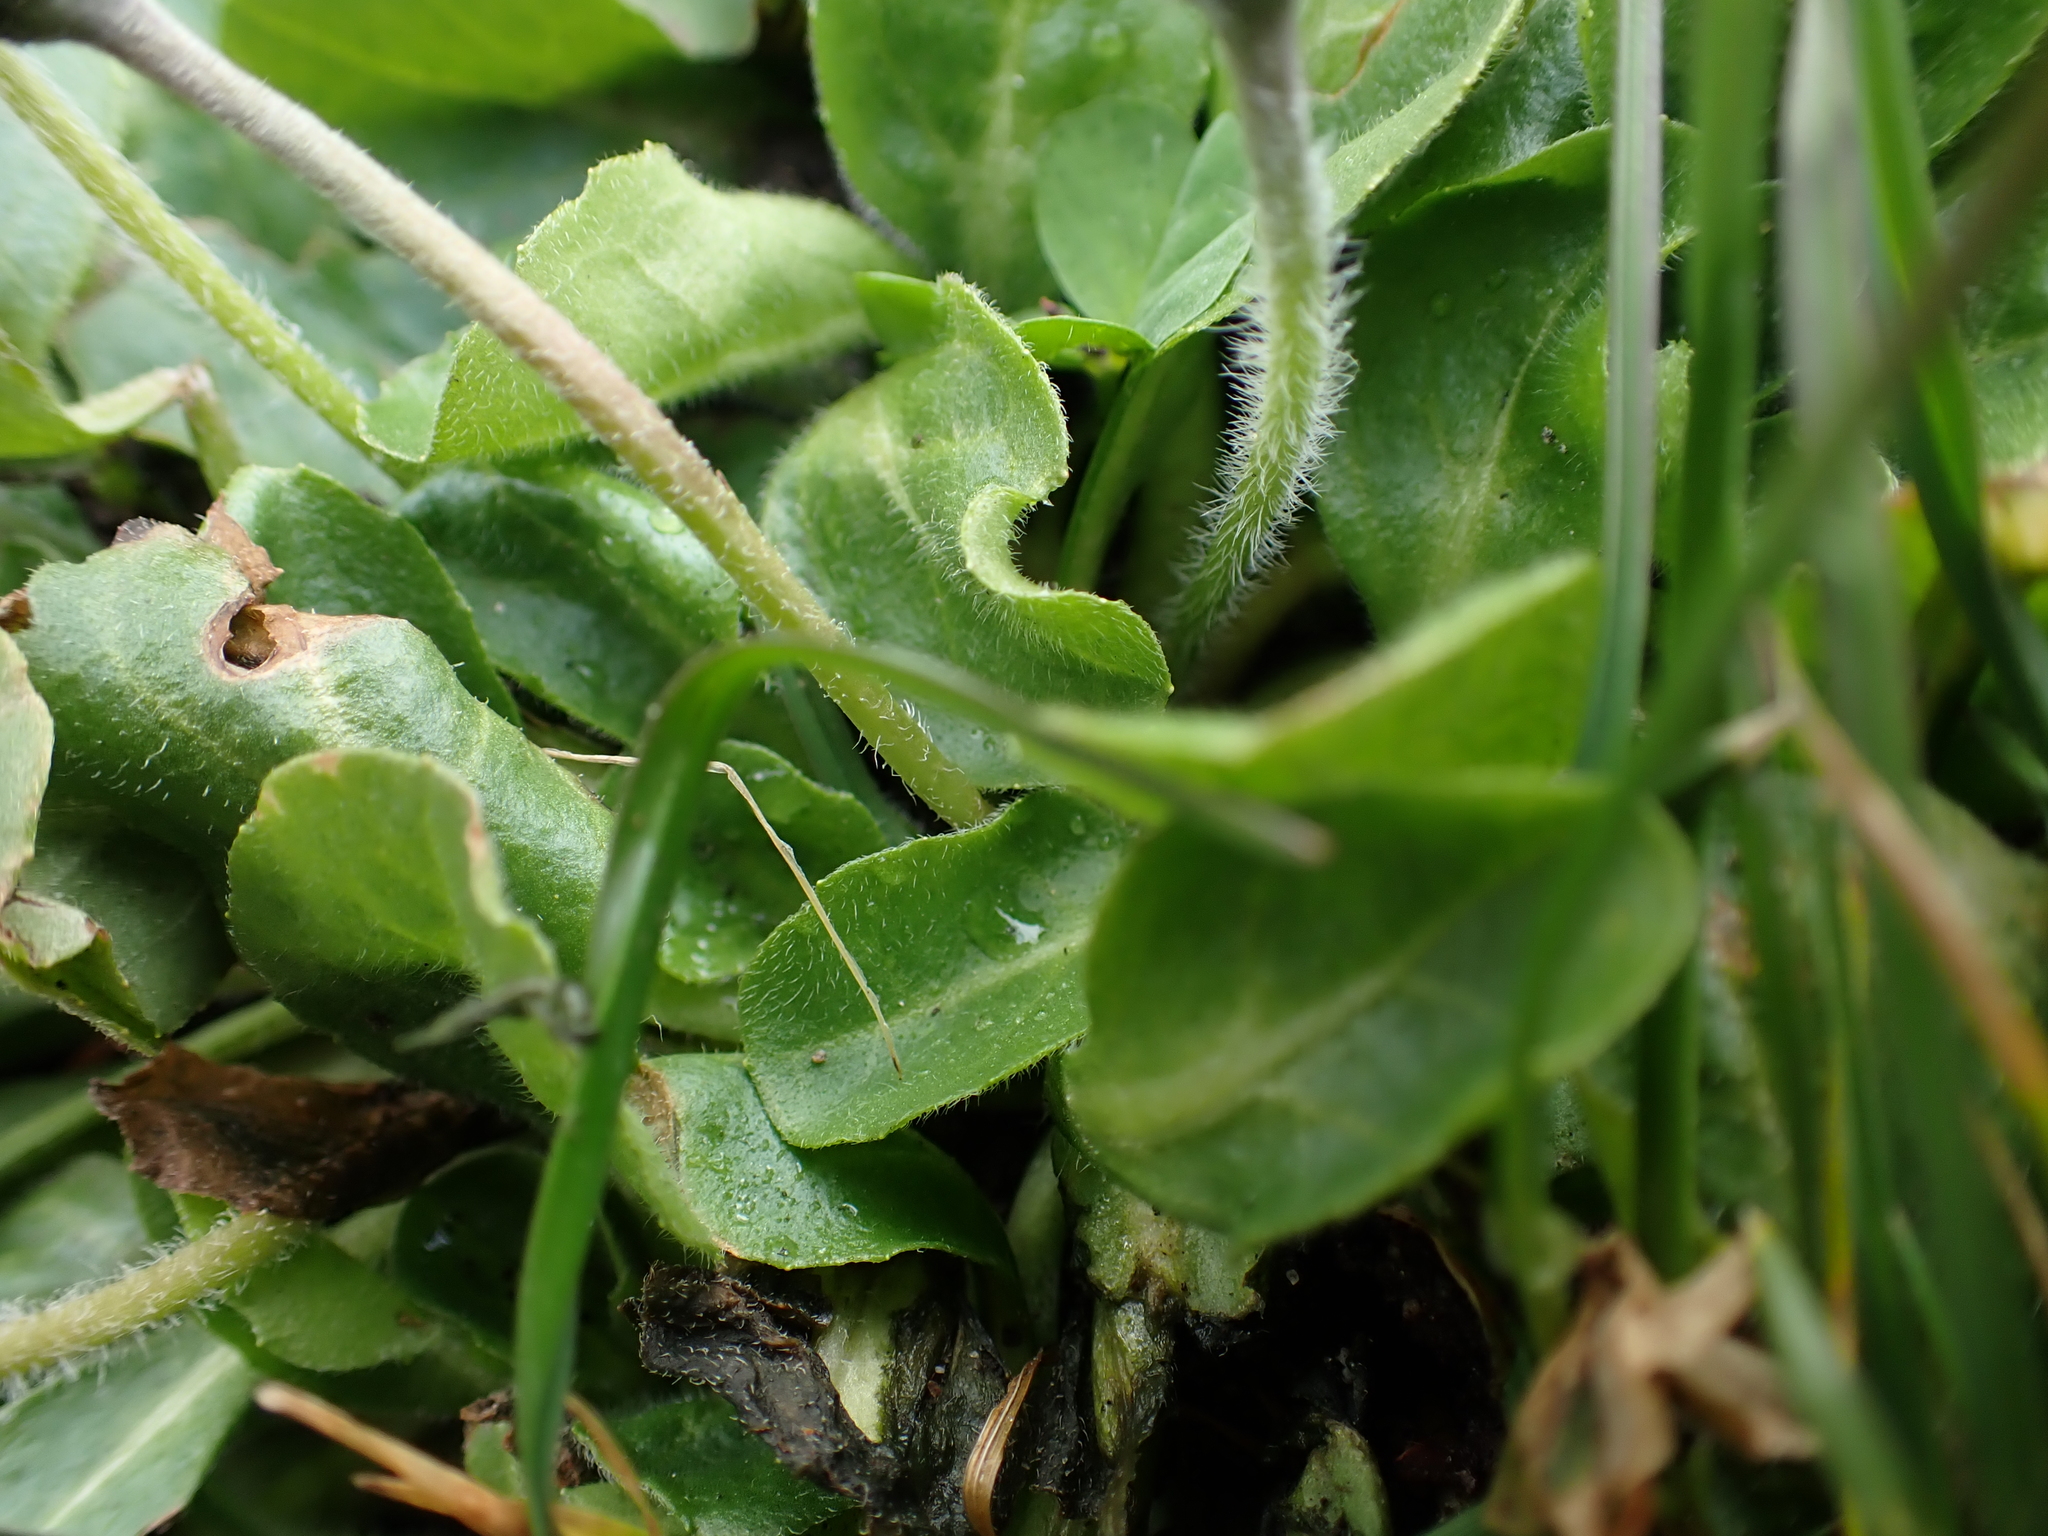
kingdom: Plantae
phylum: Tracheophyta
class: Magnoliopsida
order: Asterales
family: Asteraceae
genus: Bellis
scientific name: Bellis perennis
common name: Lawndaisy
